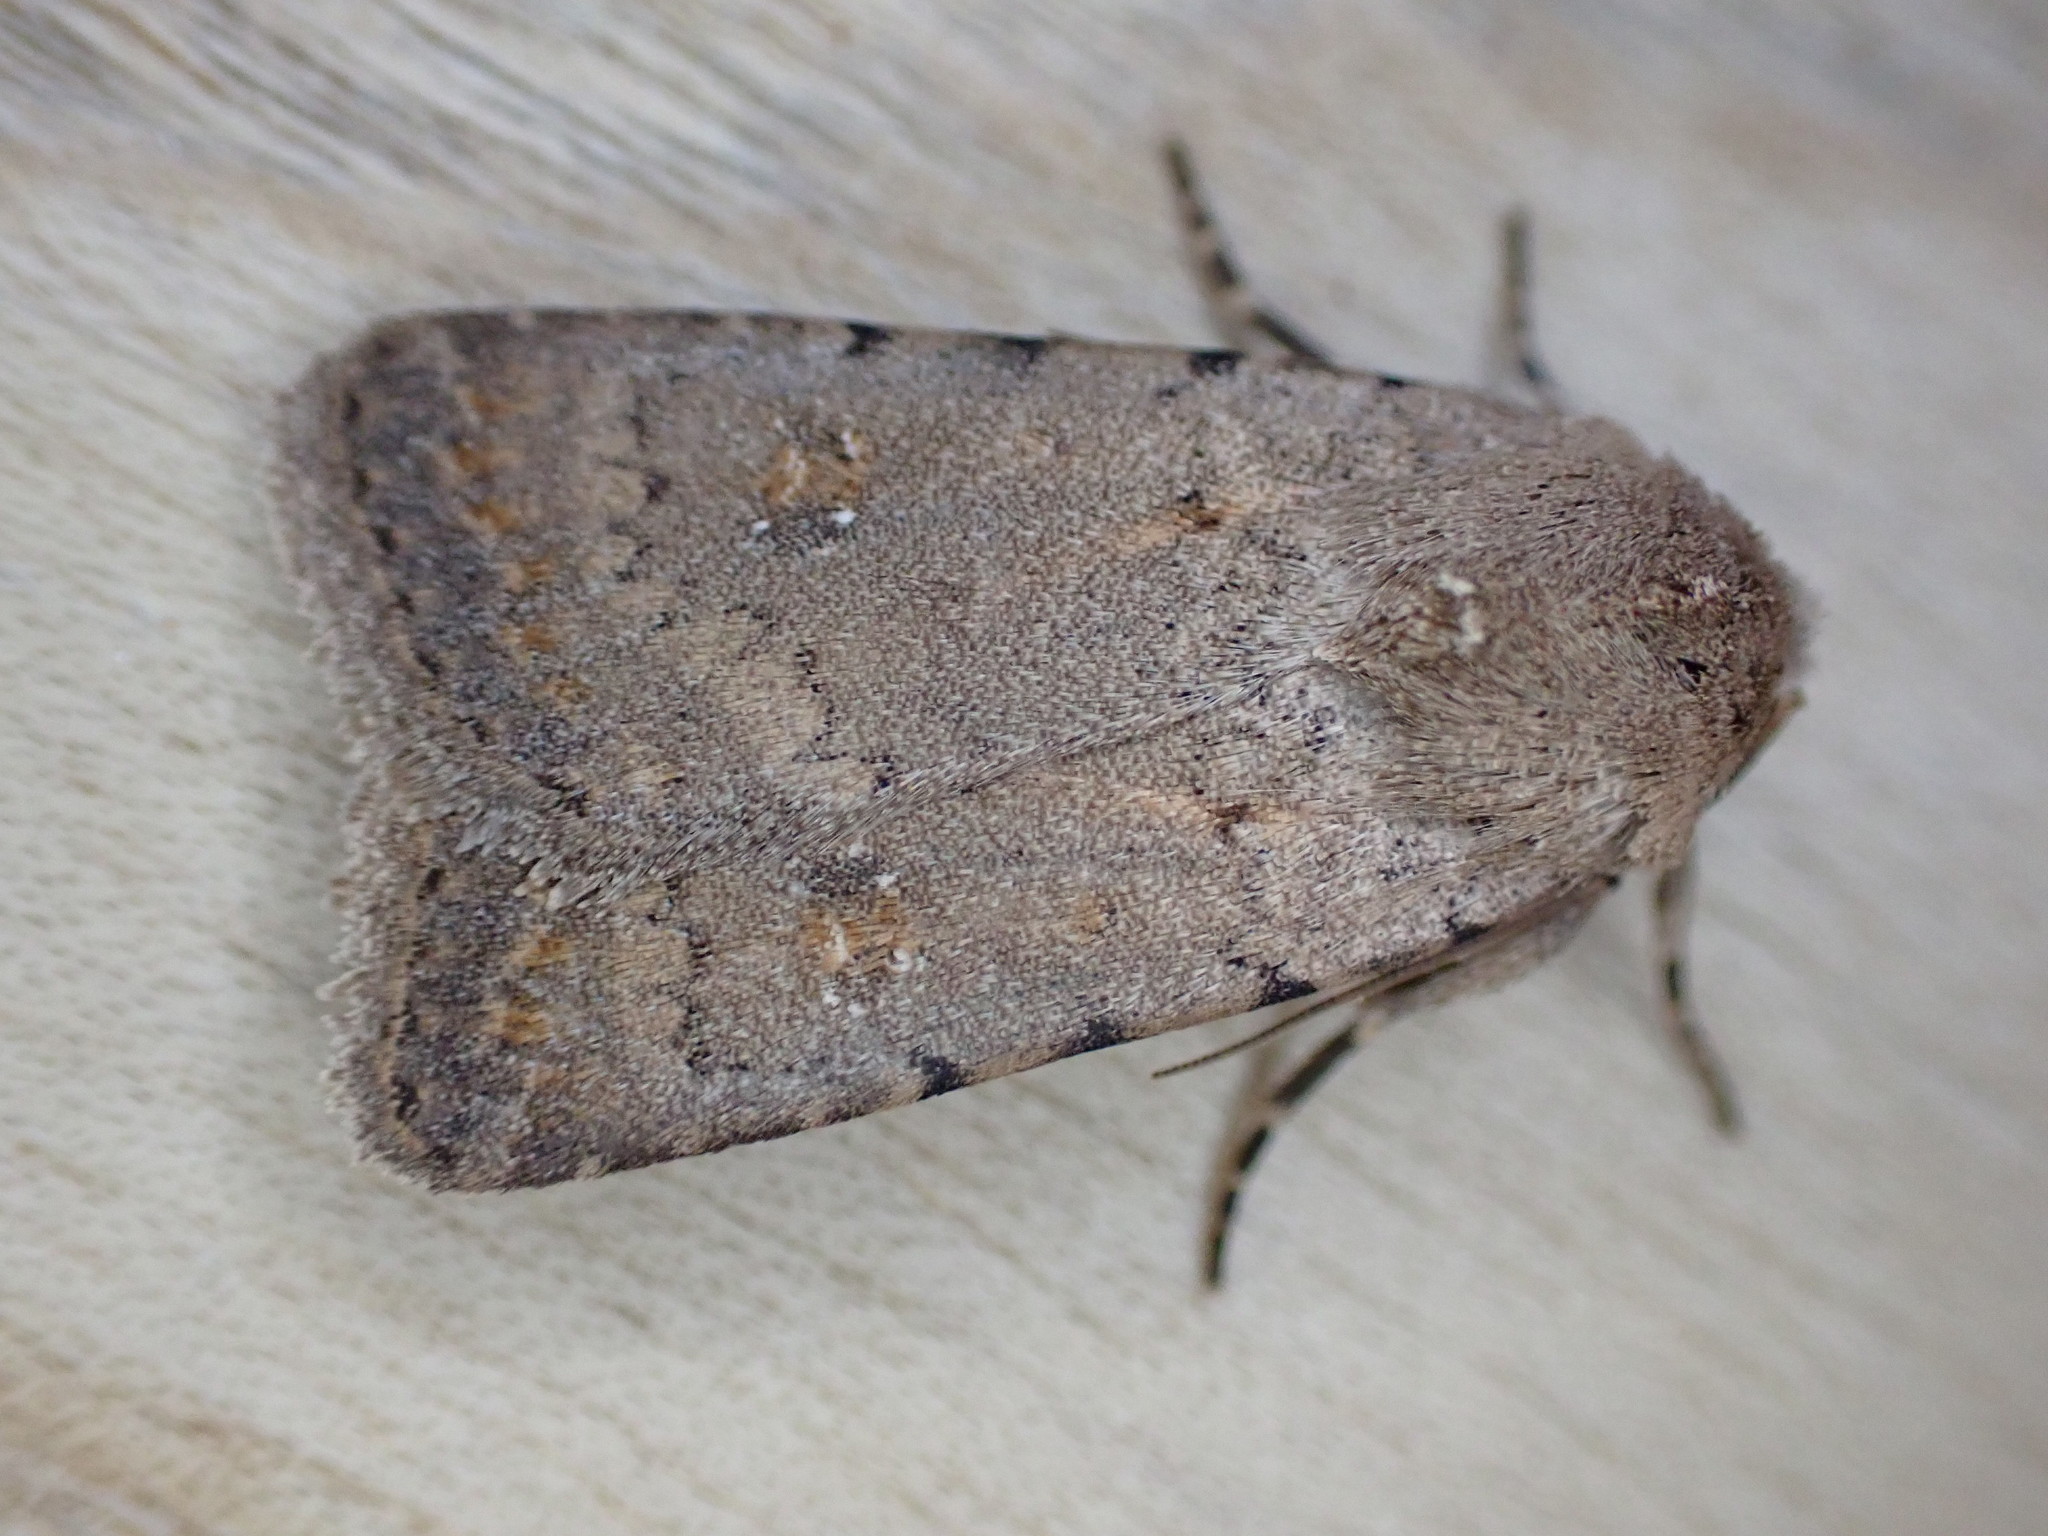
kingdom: Animalia
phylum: Arthropoda
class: Insecta
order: Lepidoptera
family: Noctuidae
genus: Caradrina
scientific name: Caradrina clavipalpis
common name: Pale mottled willow
